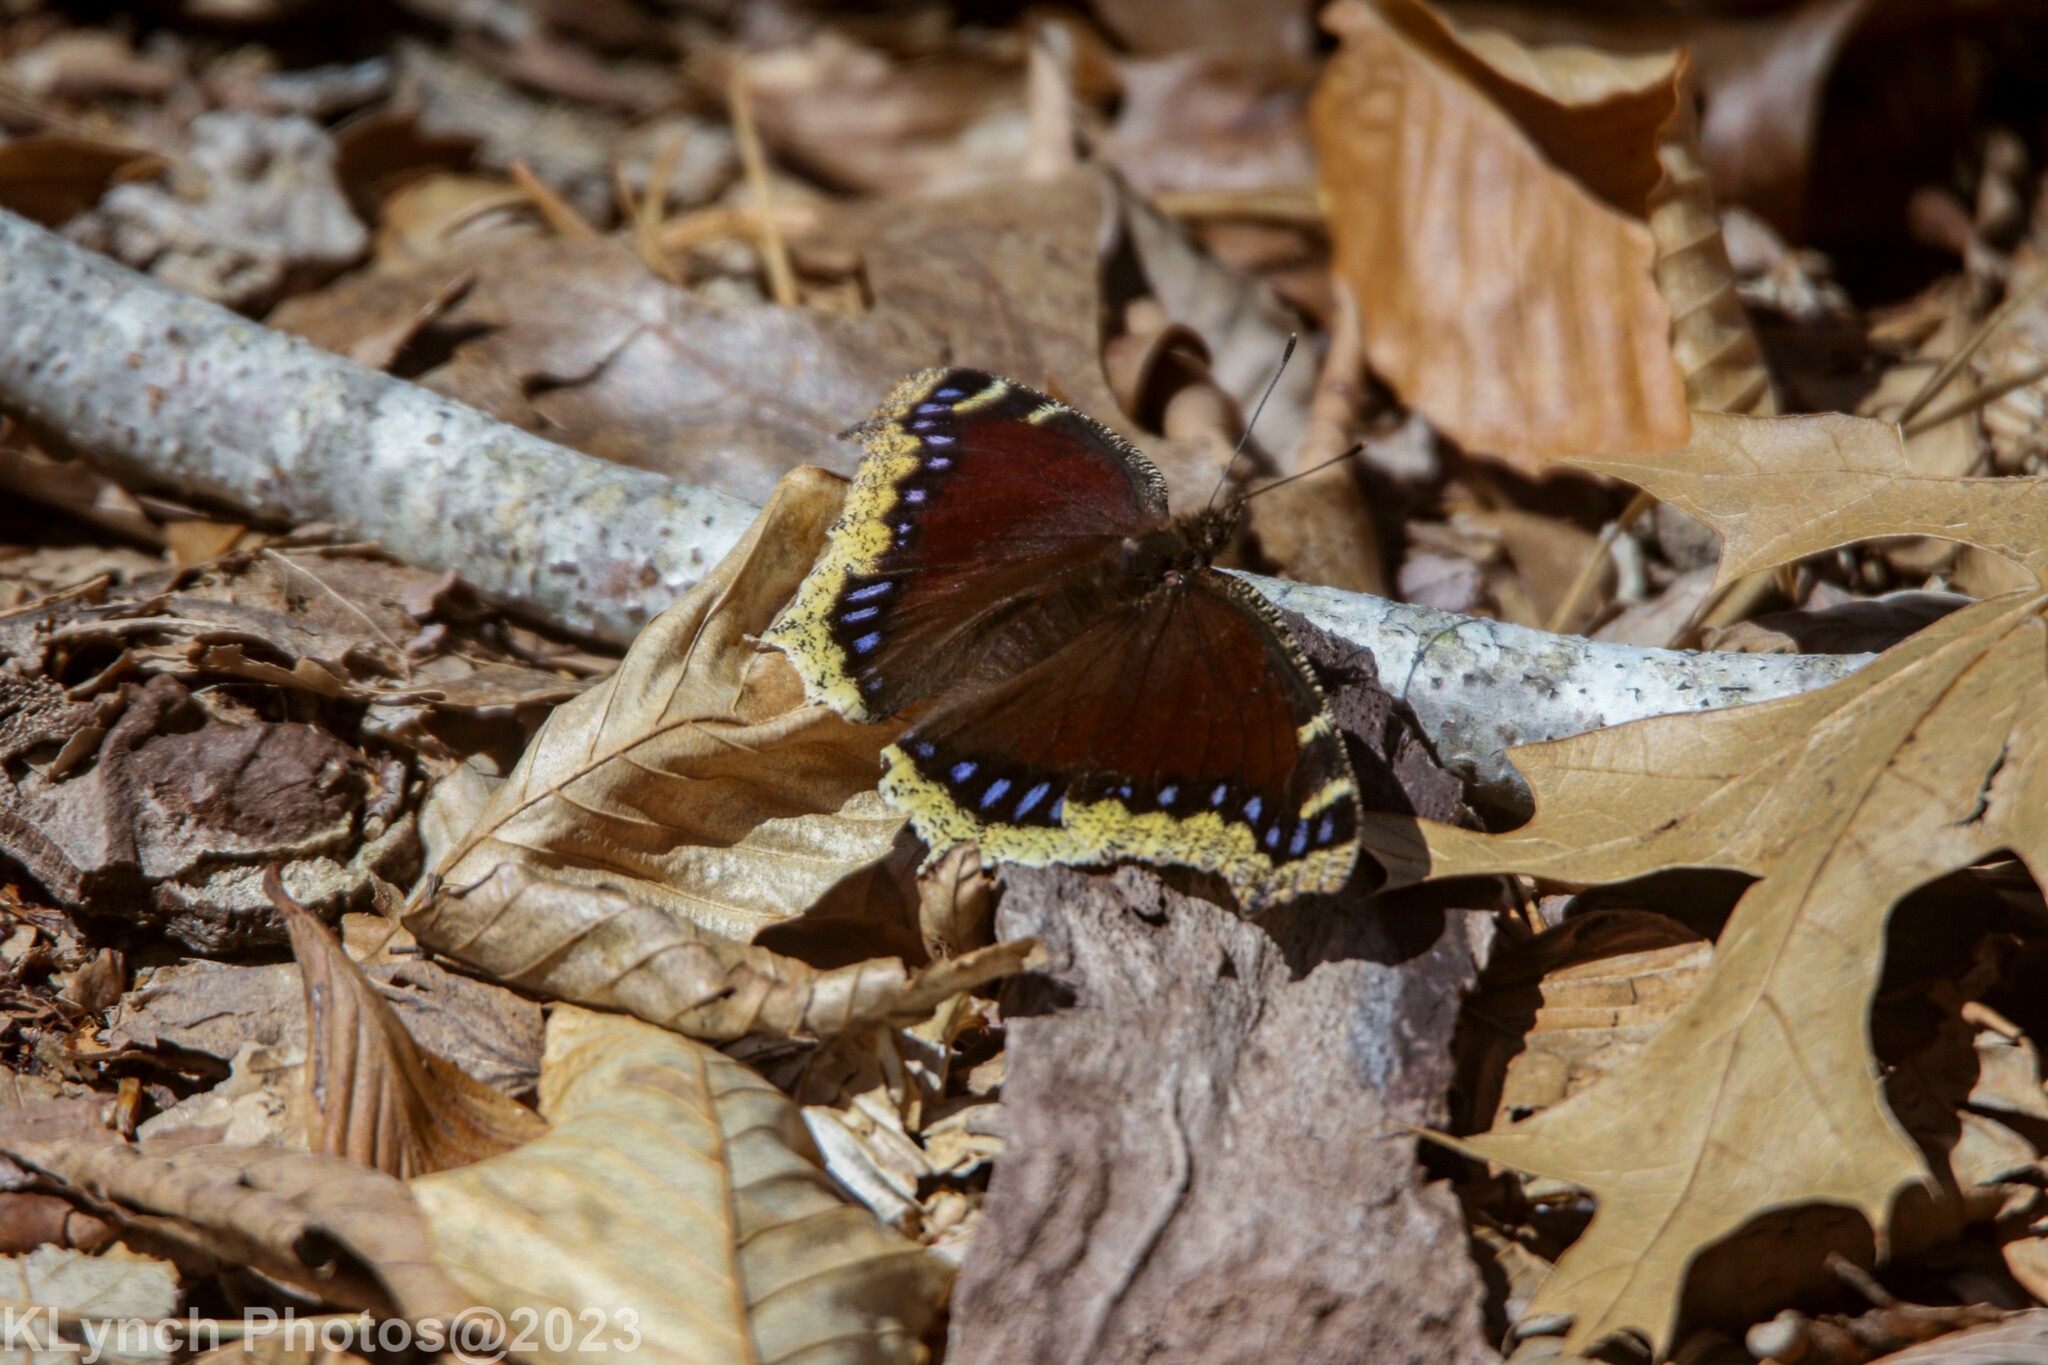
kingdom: Animalia
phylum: Arthropoda
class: Insecta
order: Lepidoptera
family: Nymphalidae
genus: Nymphalis
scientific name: Nymphalis antiopa
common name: Camberwell beauty
